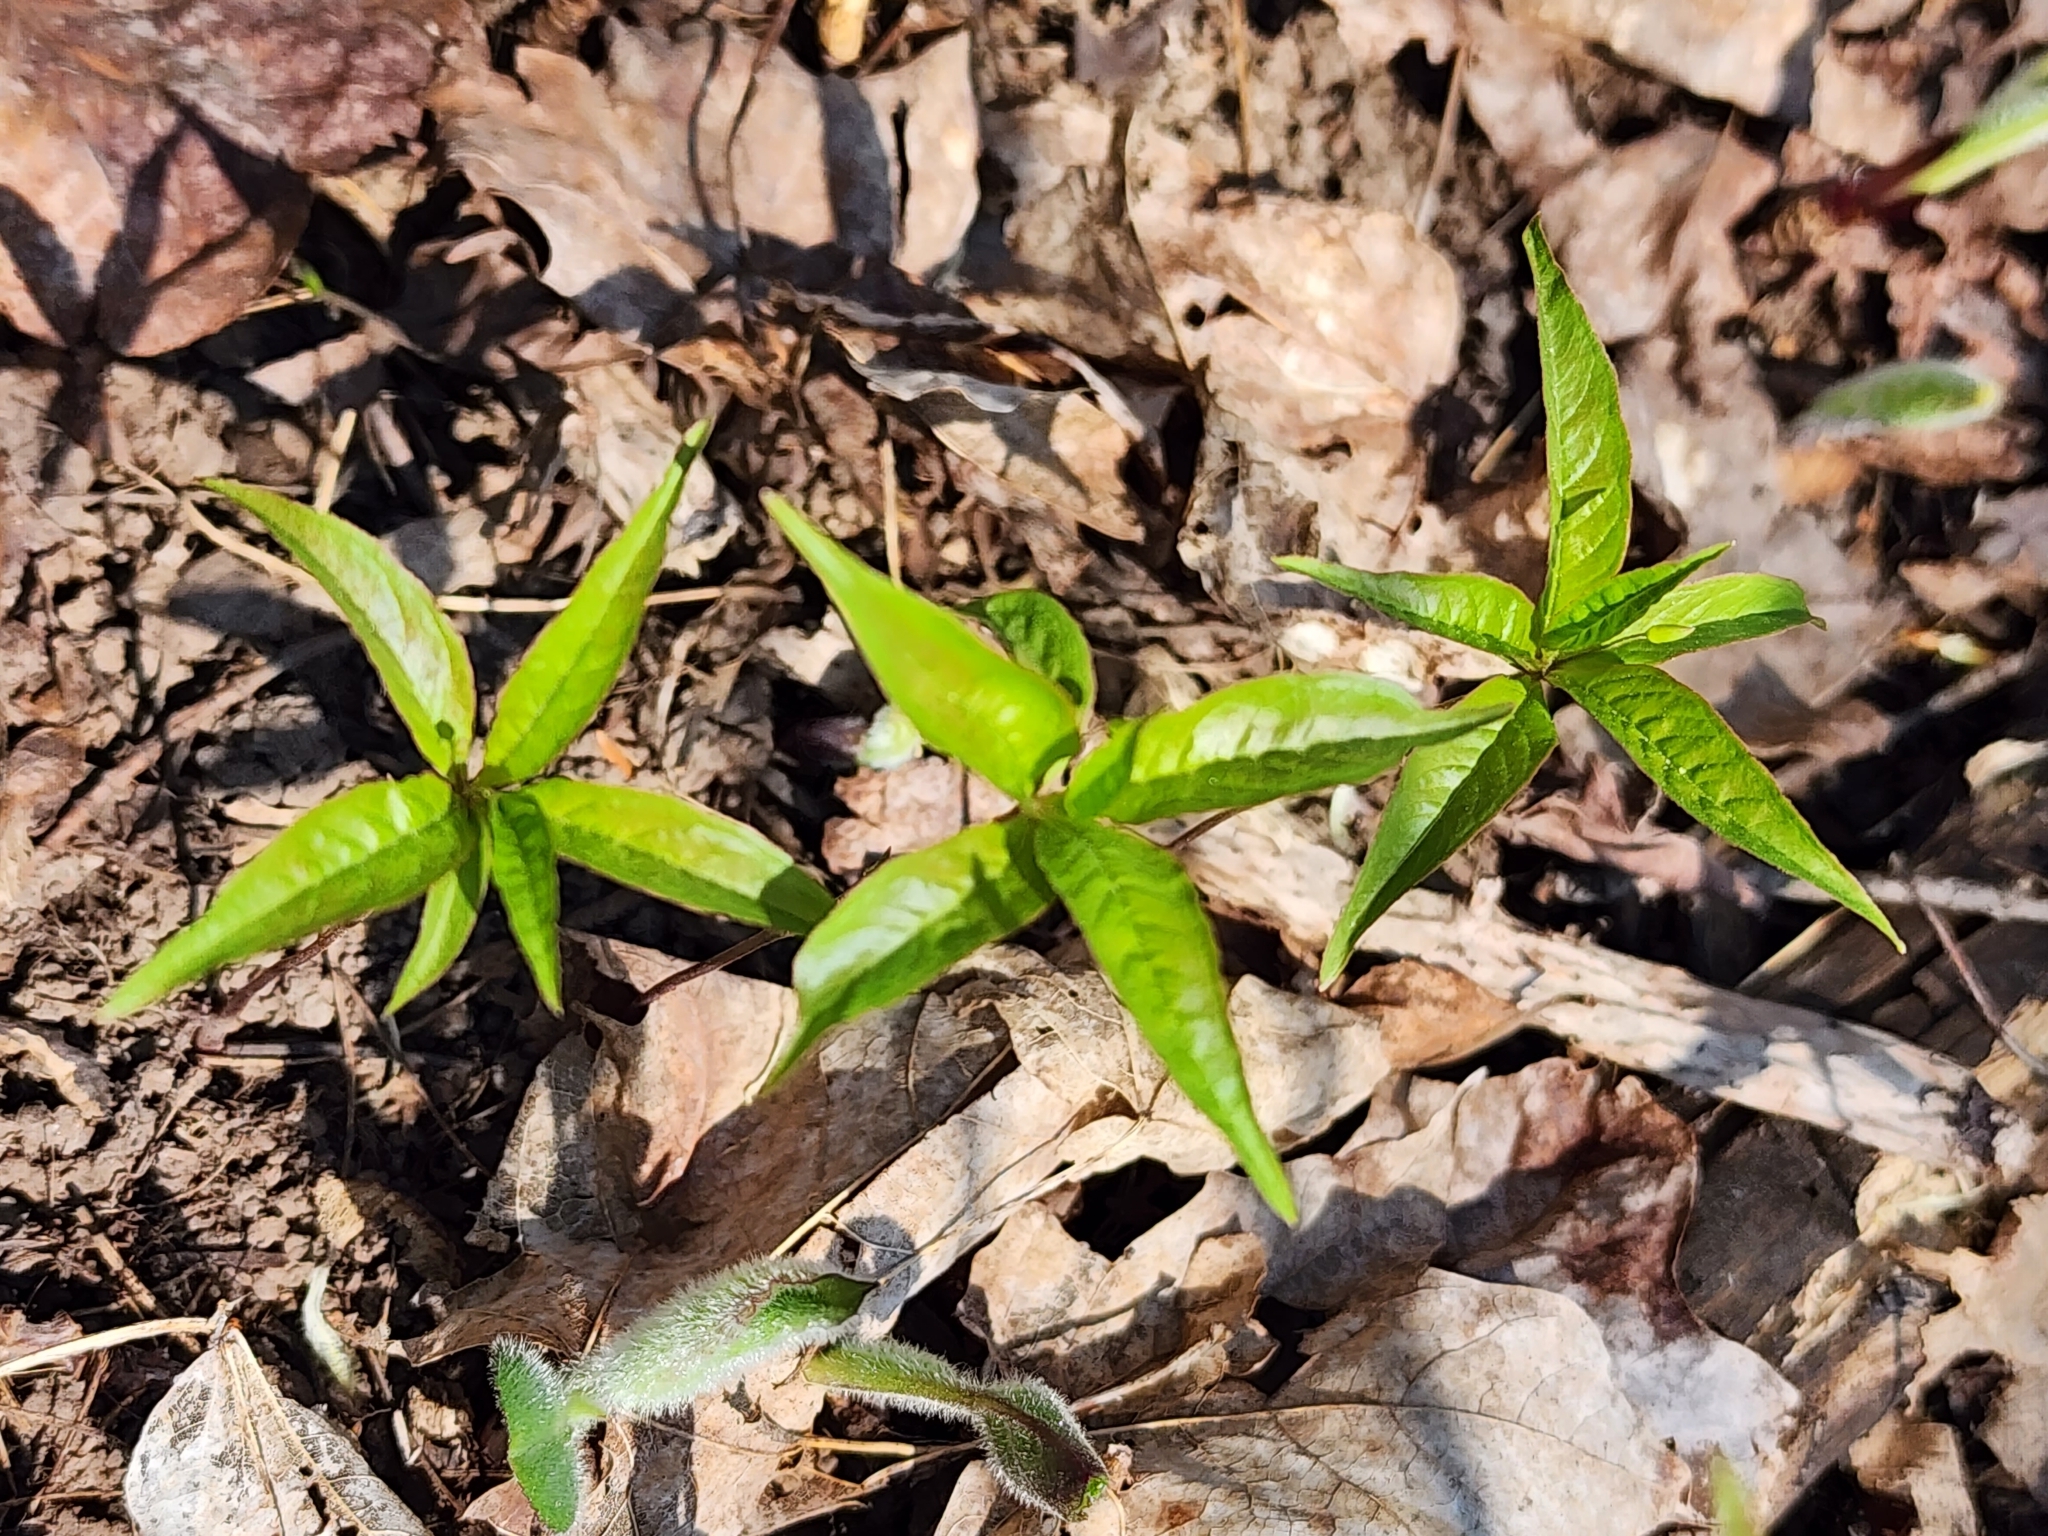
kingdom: Plantae
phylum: Tracheophyta
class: Magnoliopsida
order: Ericales
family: Primulaceae
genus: Lysimachia
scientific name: Lysimachia borealis
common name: American starflower
